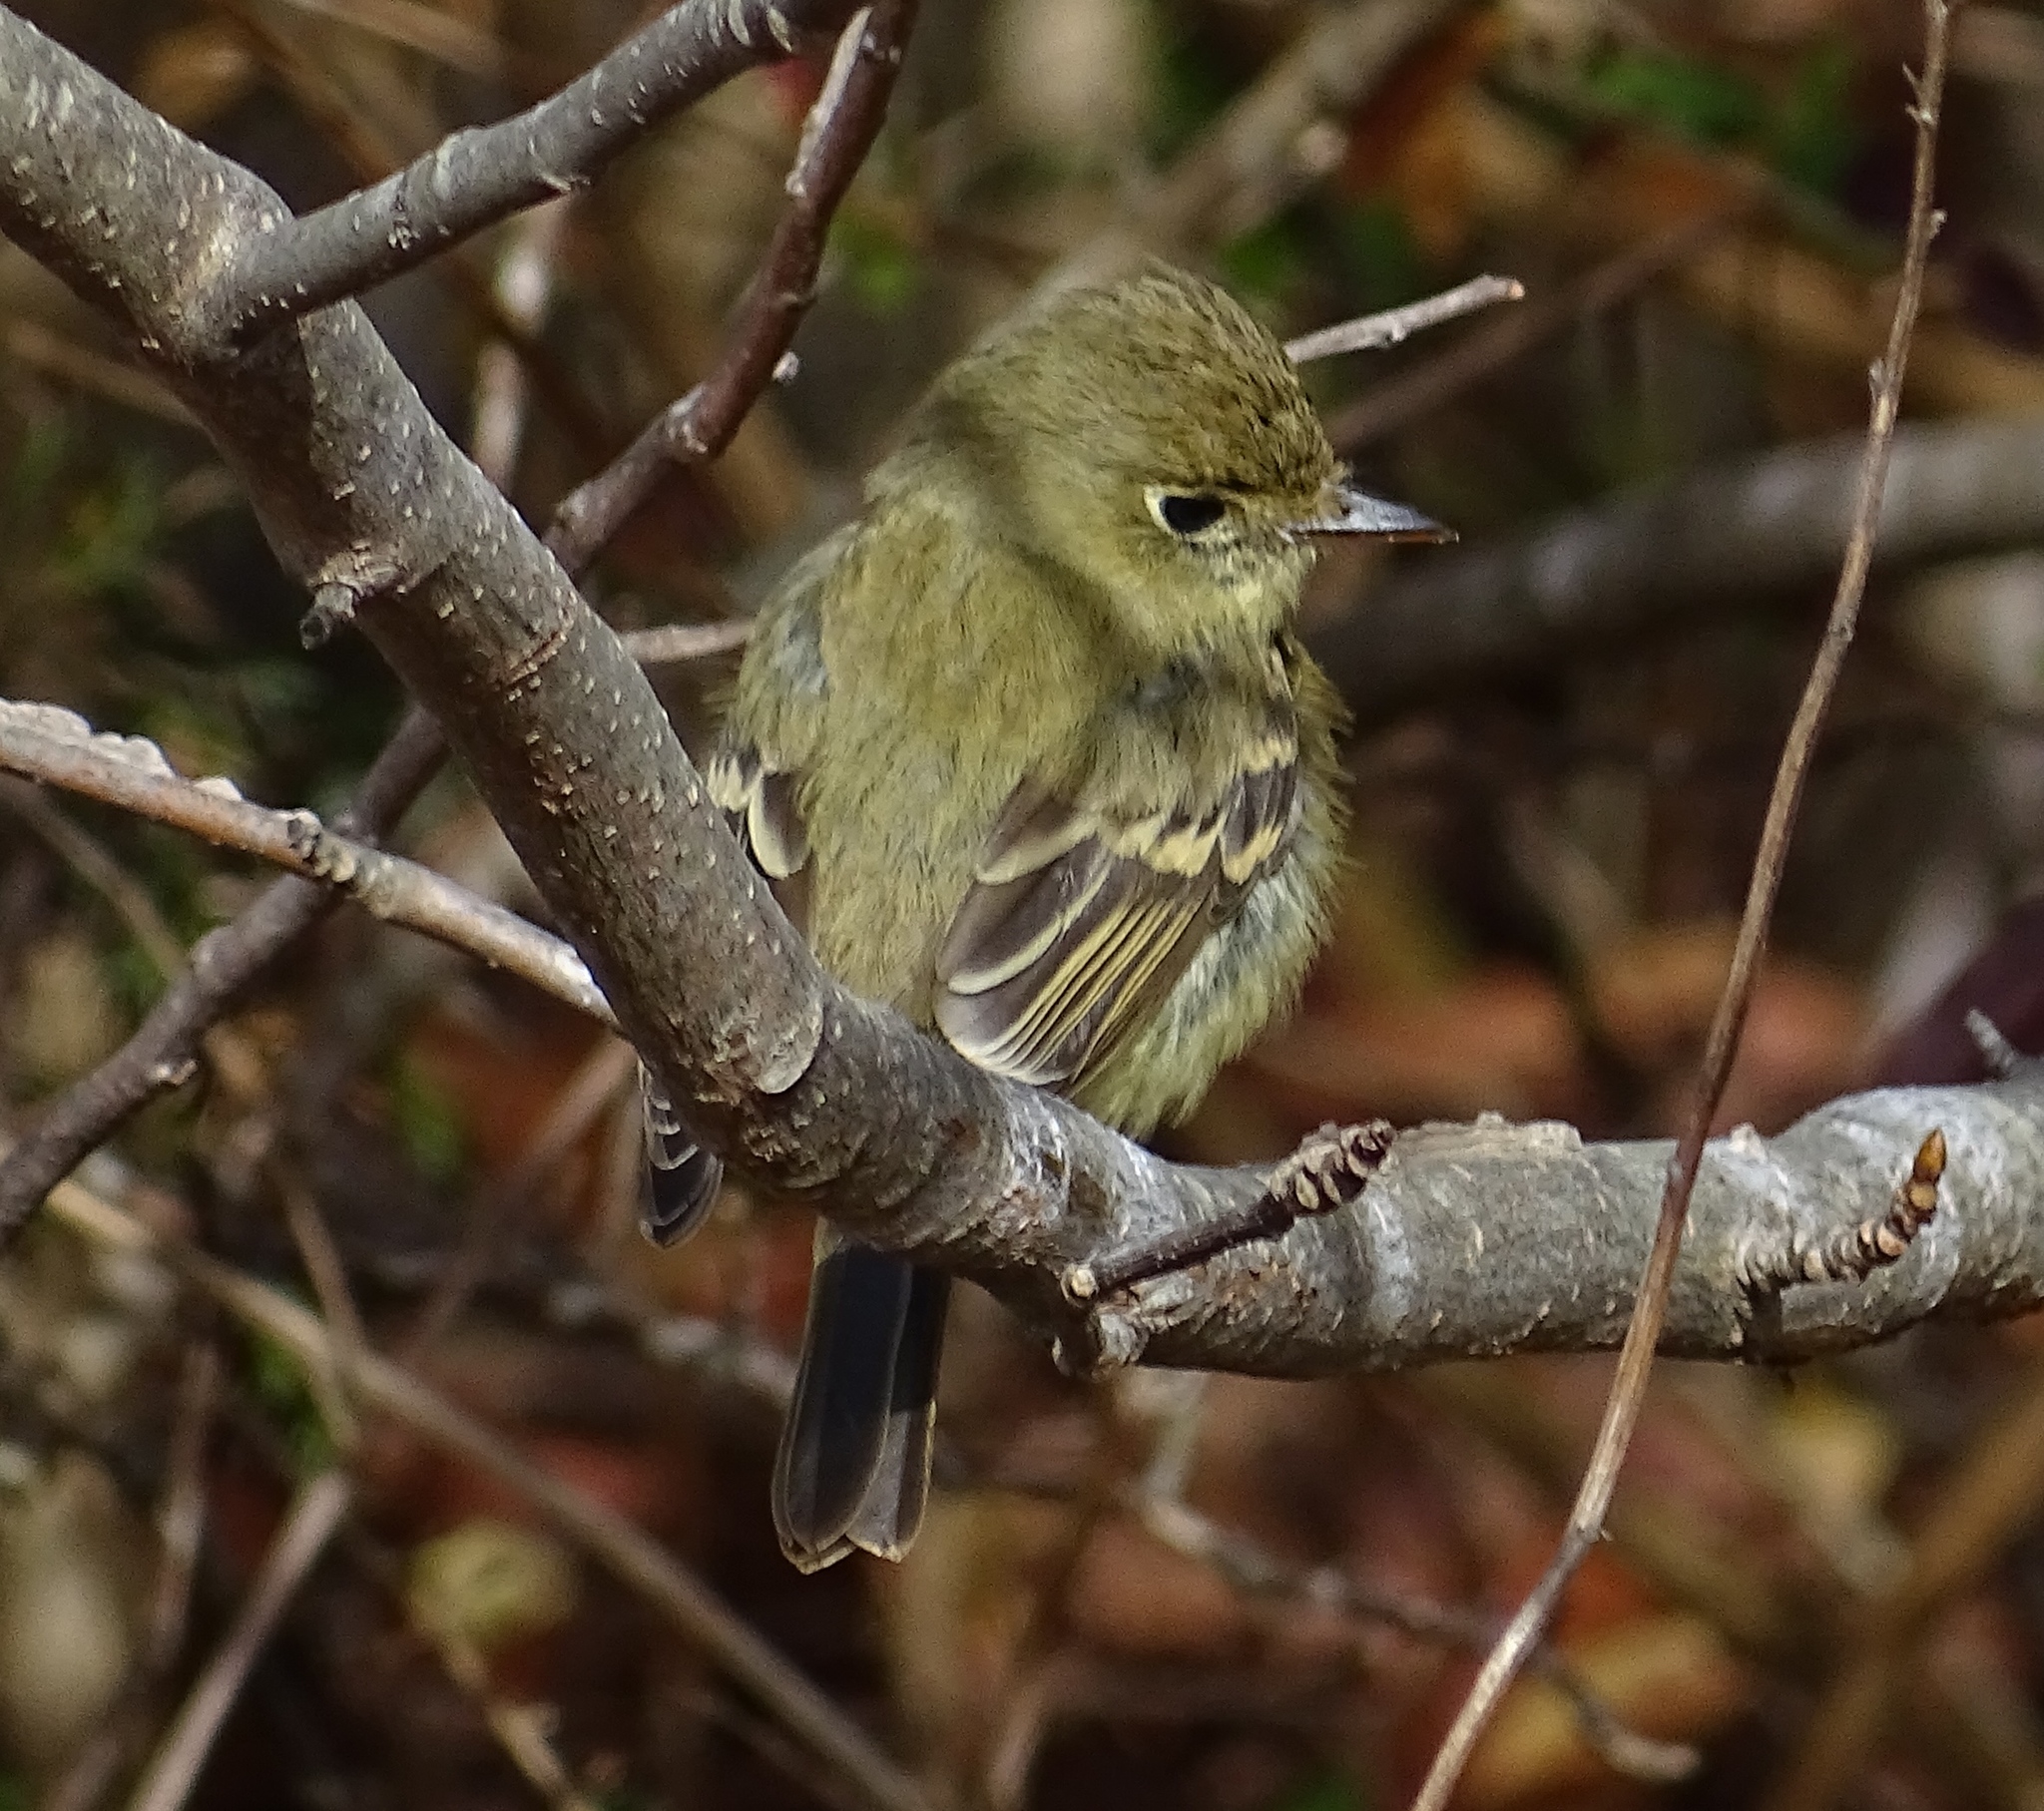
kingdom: Animalia
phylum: Chordata
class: Aves
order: Passeriformes
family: Tyrannidae
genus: Empidonax
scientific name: Empidonax difficilis
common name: Pacific-slope flycatcher
